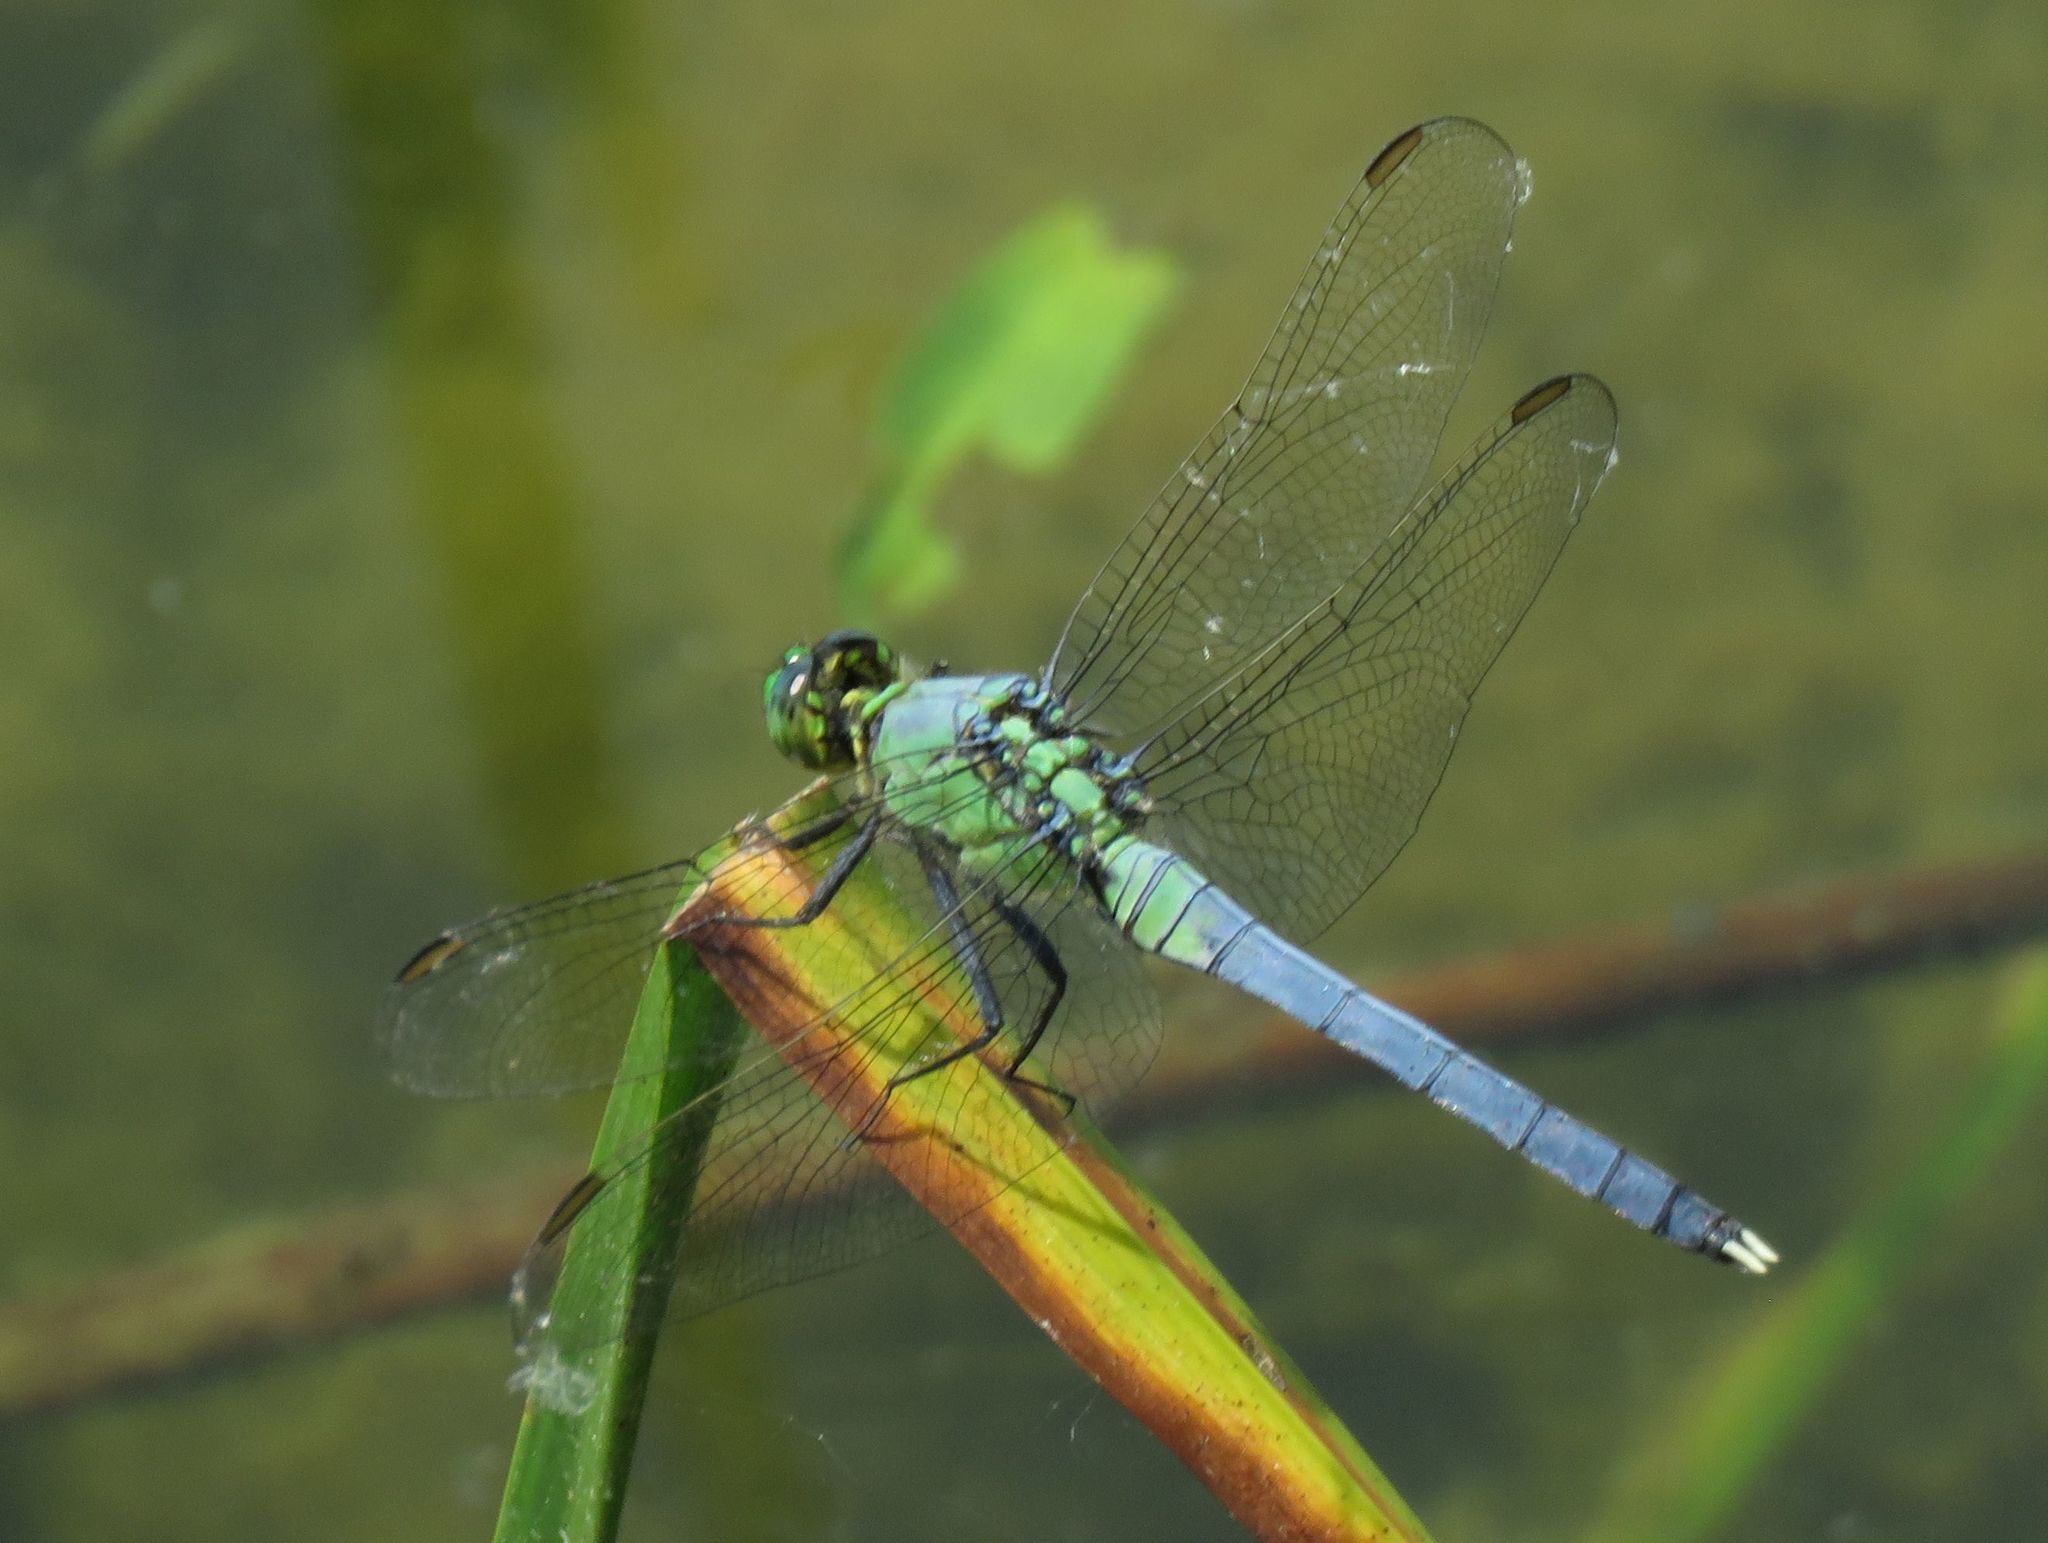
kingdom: Animalia
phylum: Arthropoda
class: Insecta
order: Odonata
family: Libellulidae
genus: Erythemis
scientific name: Erythemis simplicicollis
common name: Eastern pondhawk
